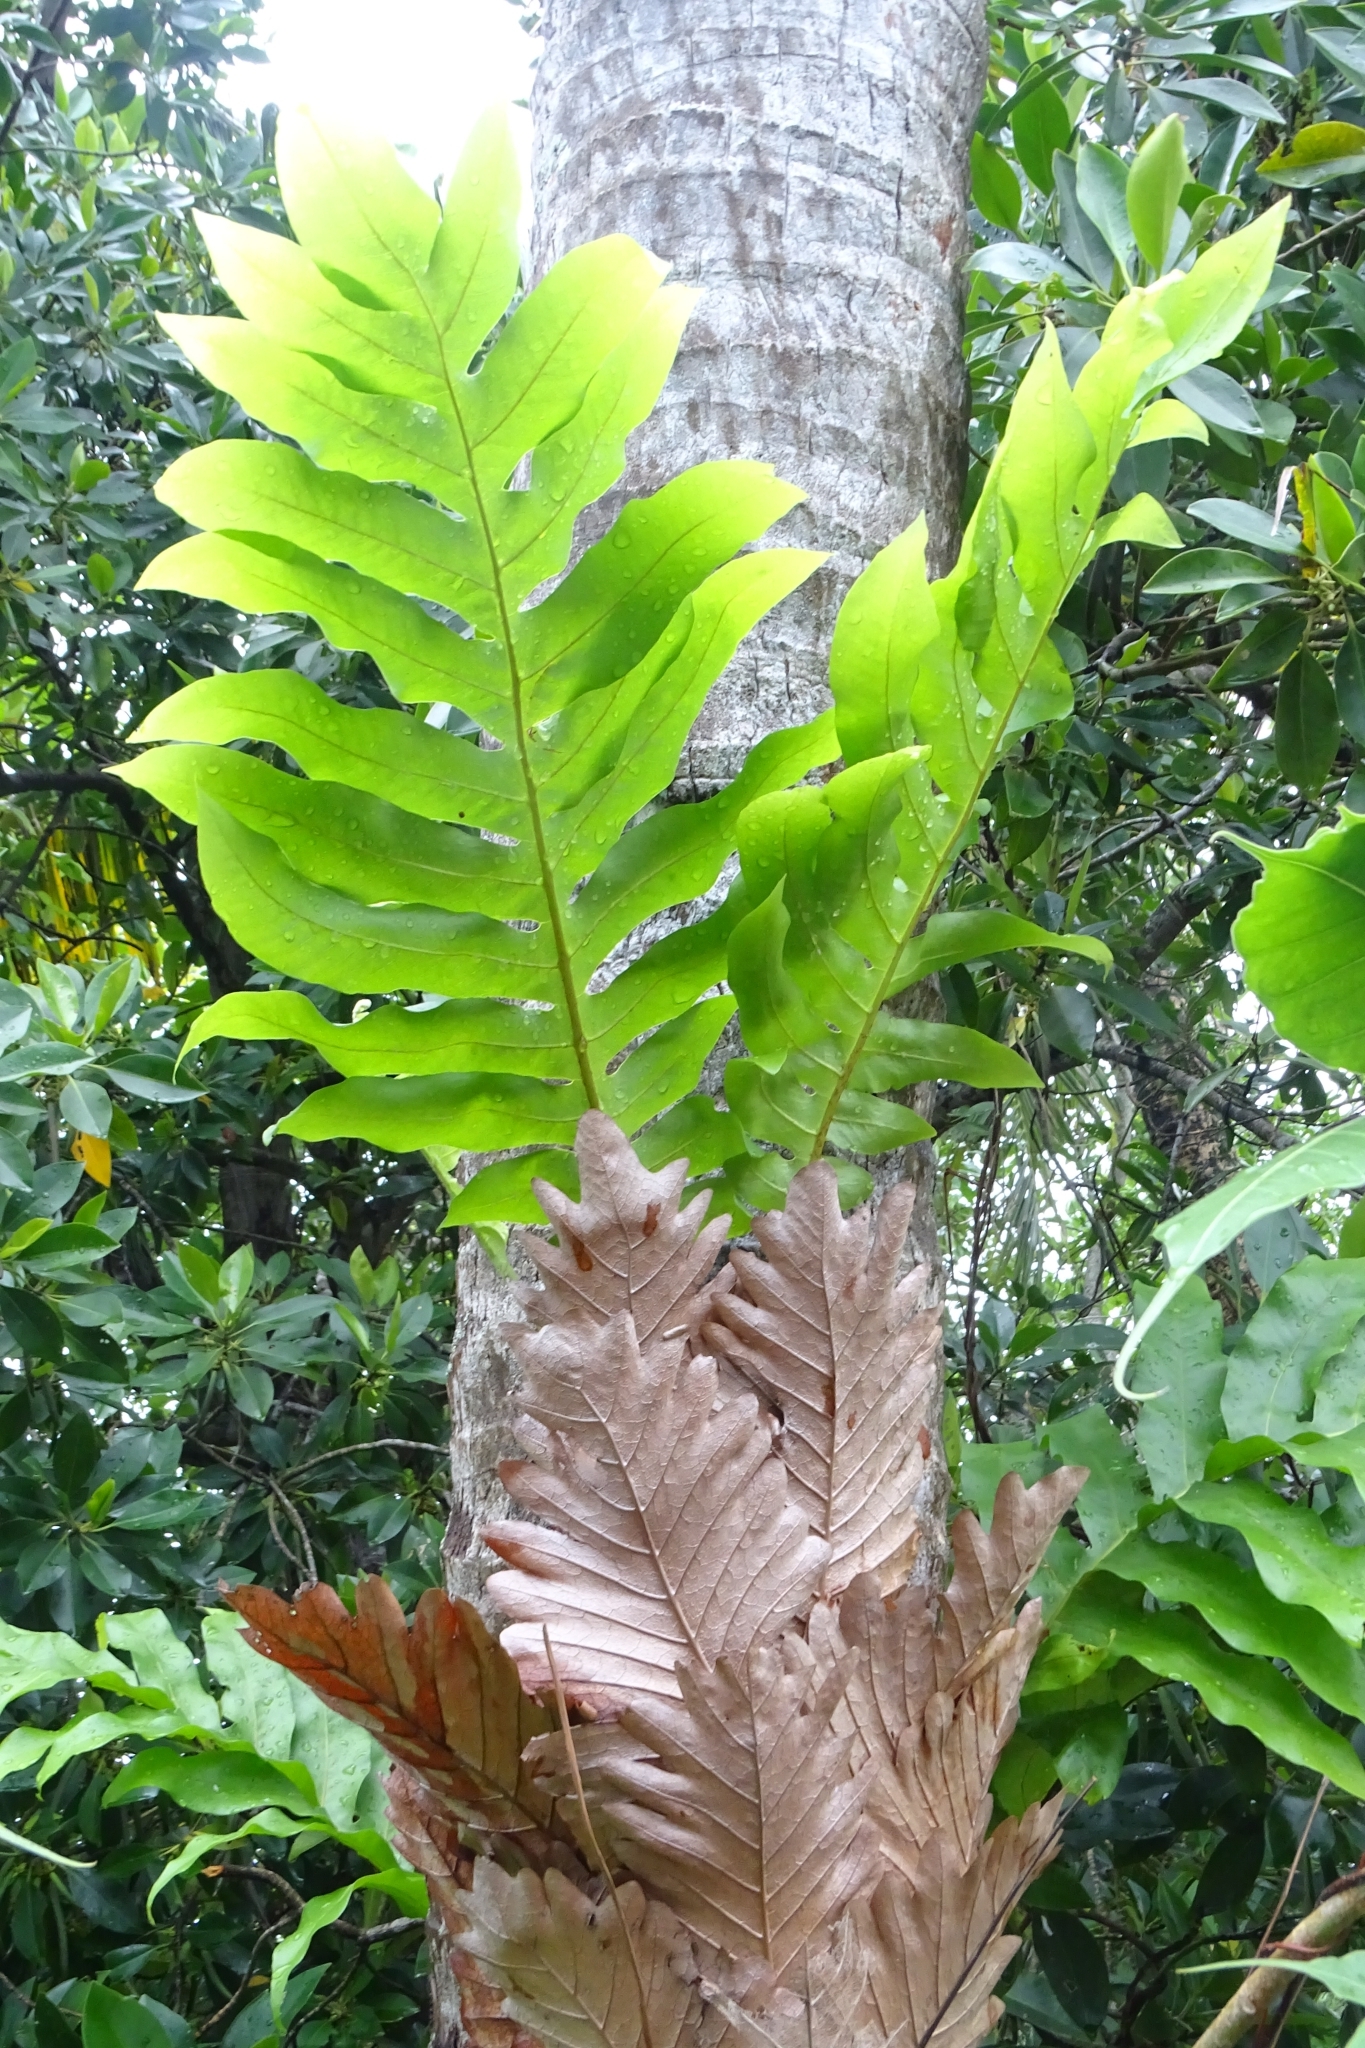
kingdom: Plantae
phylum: Tracheophyta
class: Polypodiopsida
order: Polypodiales
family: Polypodiaceae
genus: Drynaria
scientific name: Drynaria quercifolia
